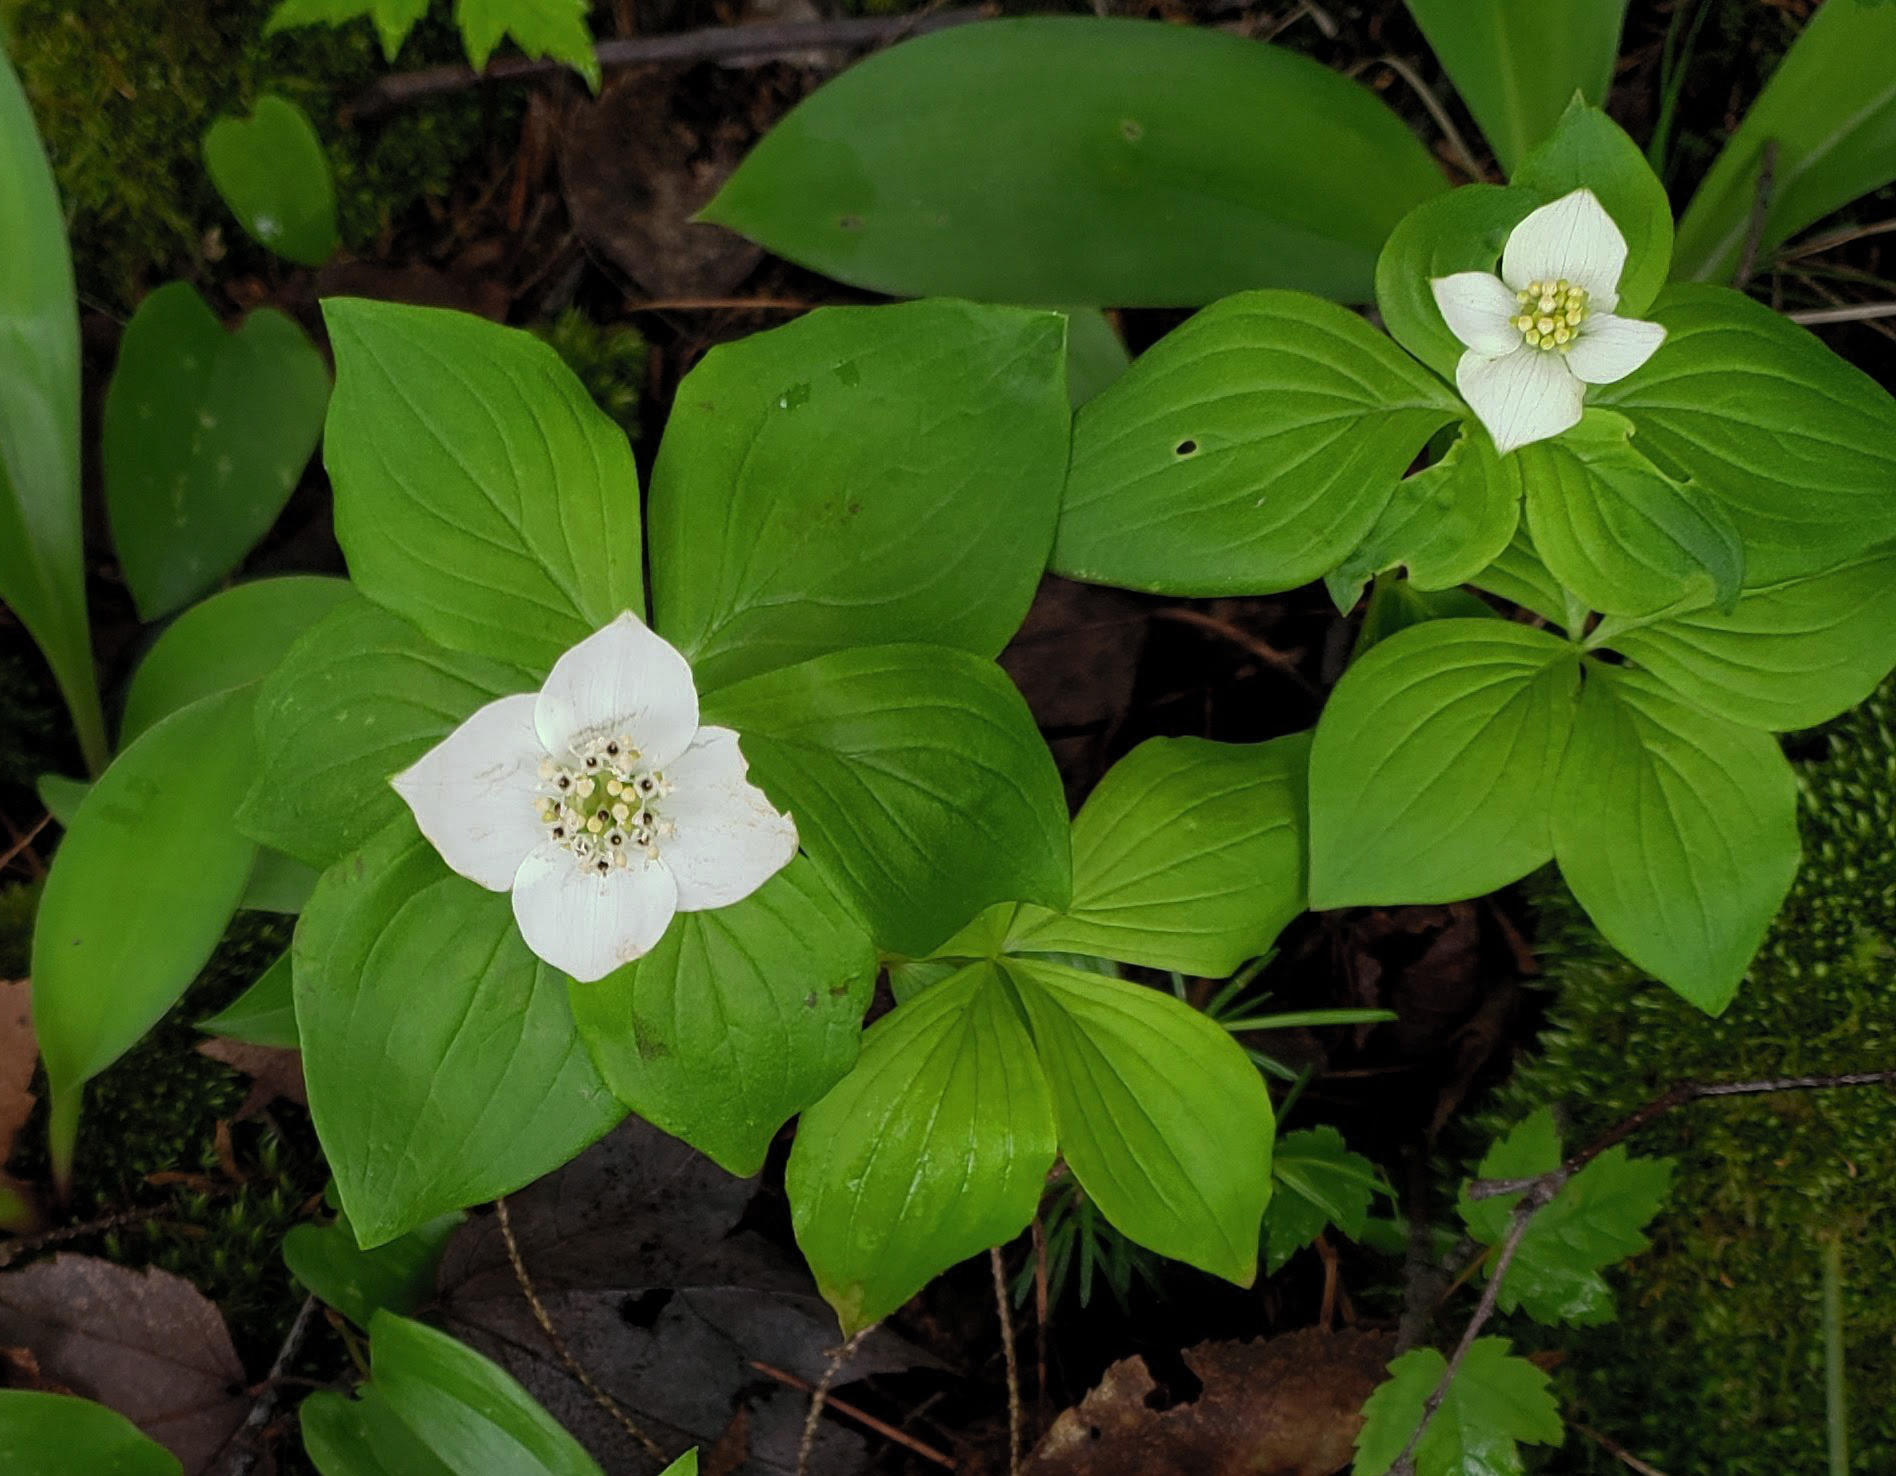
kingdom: Plantae
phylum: Tracheophyta
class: Magnoliopsida
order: Cornales
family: Cornaceae
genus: Cornus
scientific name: Cornus canadensis
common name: Creeping dogwood
